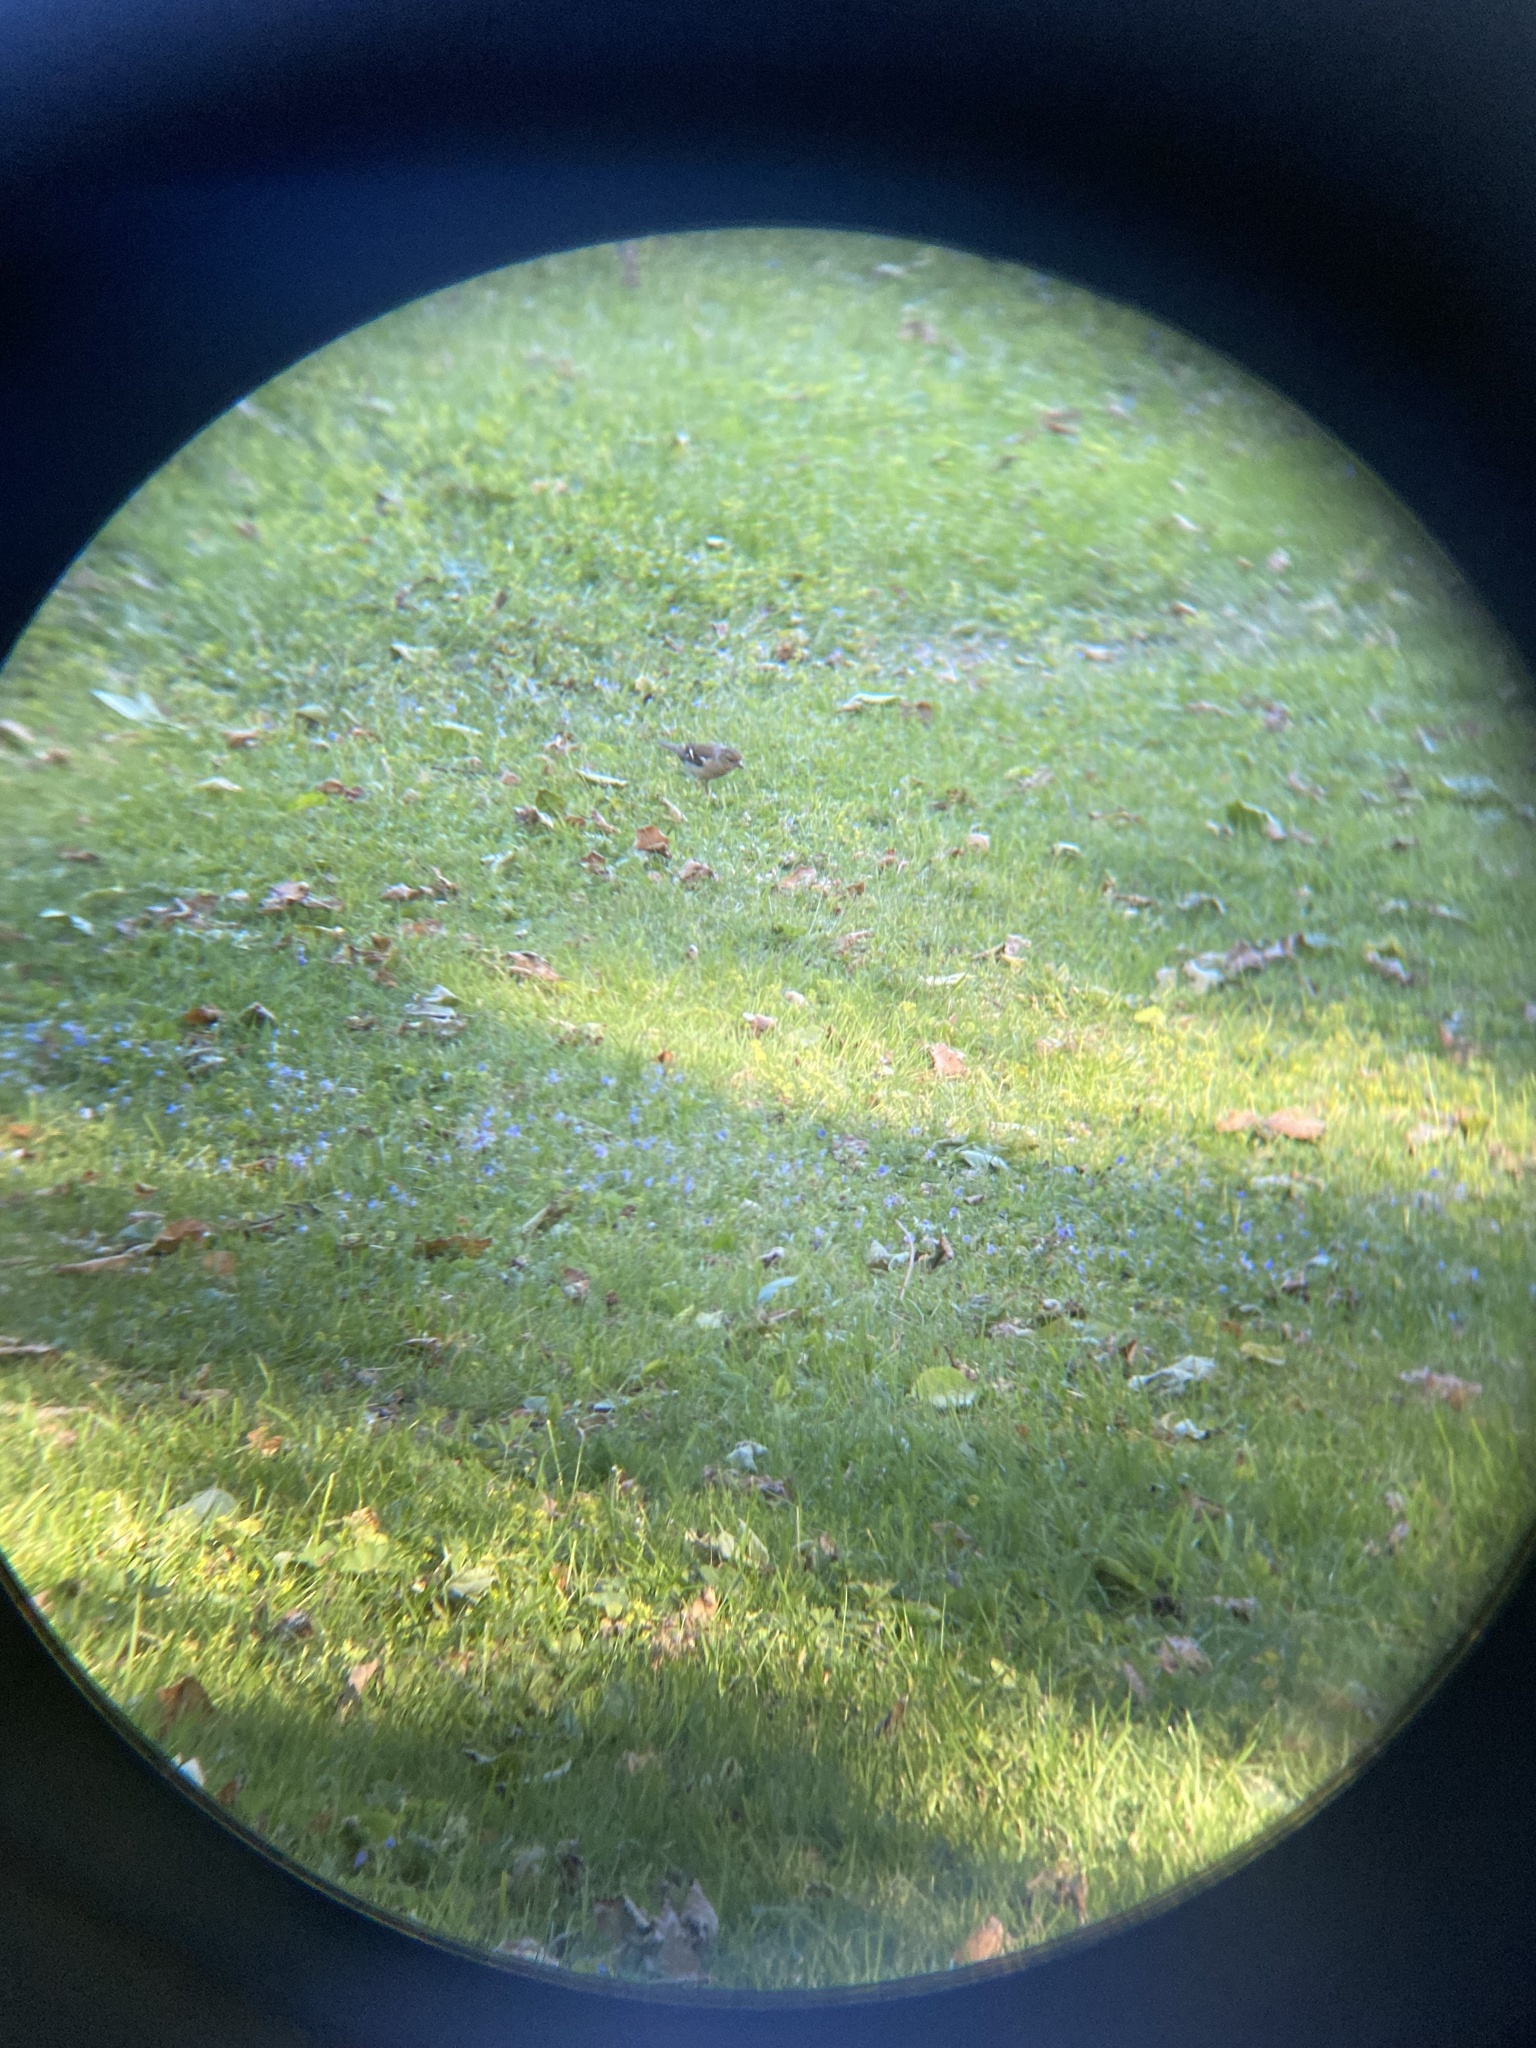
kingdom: Animalia
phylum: Chordata
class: Aves
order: Passeriformes
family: Fringillidae
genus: Fringilla
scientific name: Fringilla coelebs
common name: Common chaffinch
